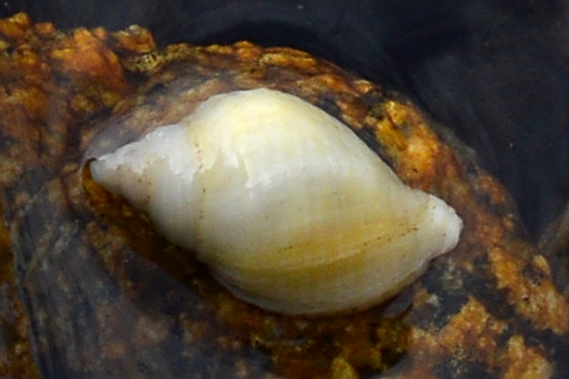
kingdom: Animalia
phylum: Mollusca
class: Gastropoda
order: Neogastropoda
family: Muricidae
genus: Nucella
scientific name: Nucella lapillus
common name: Dog whelk
